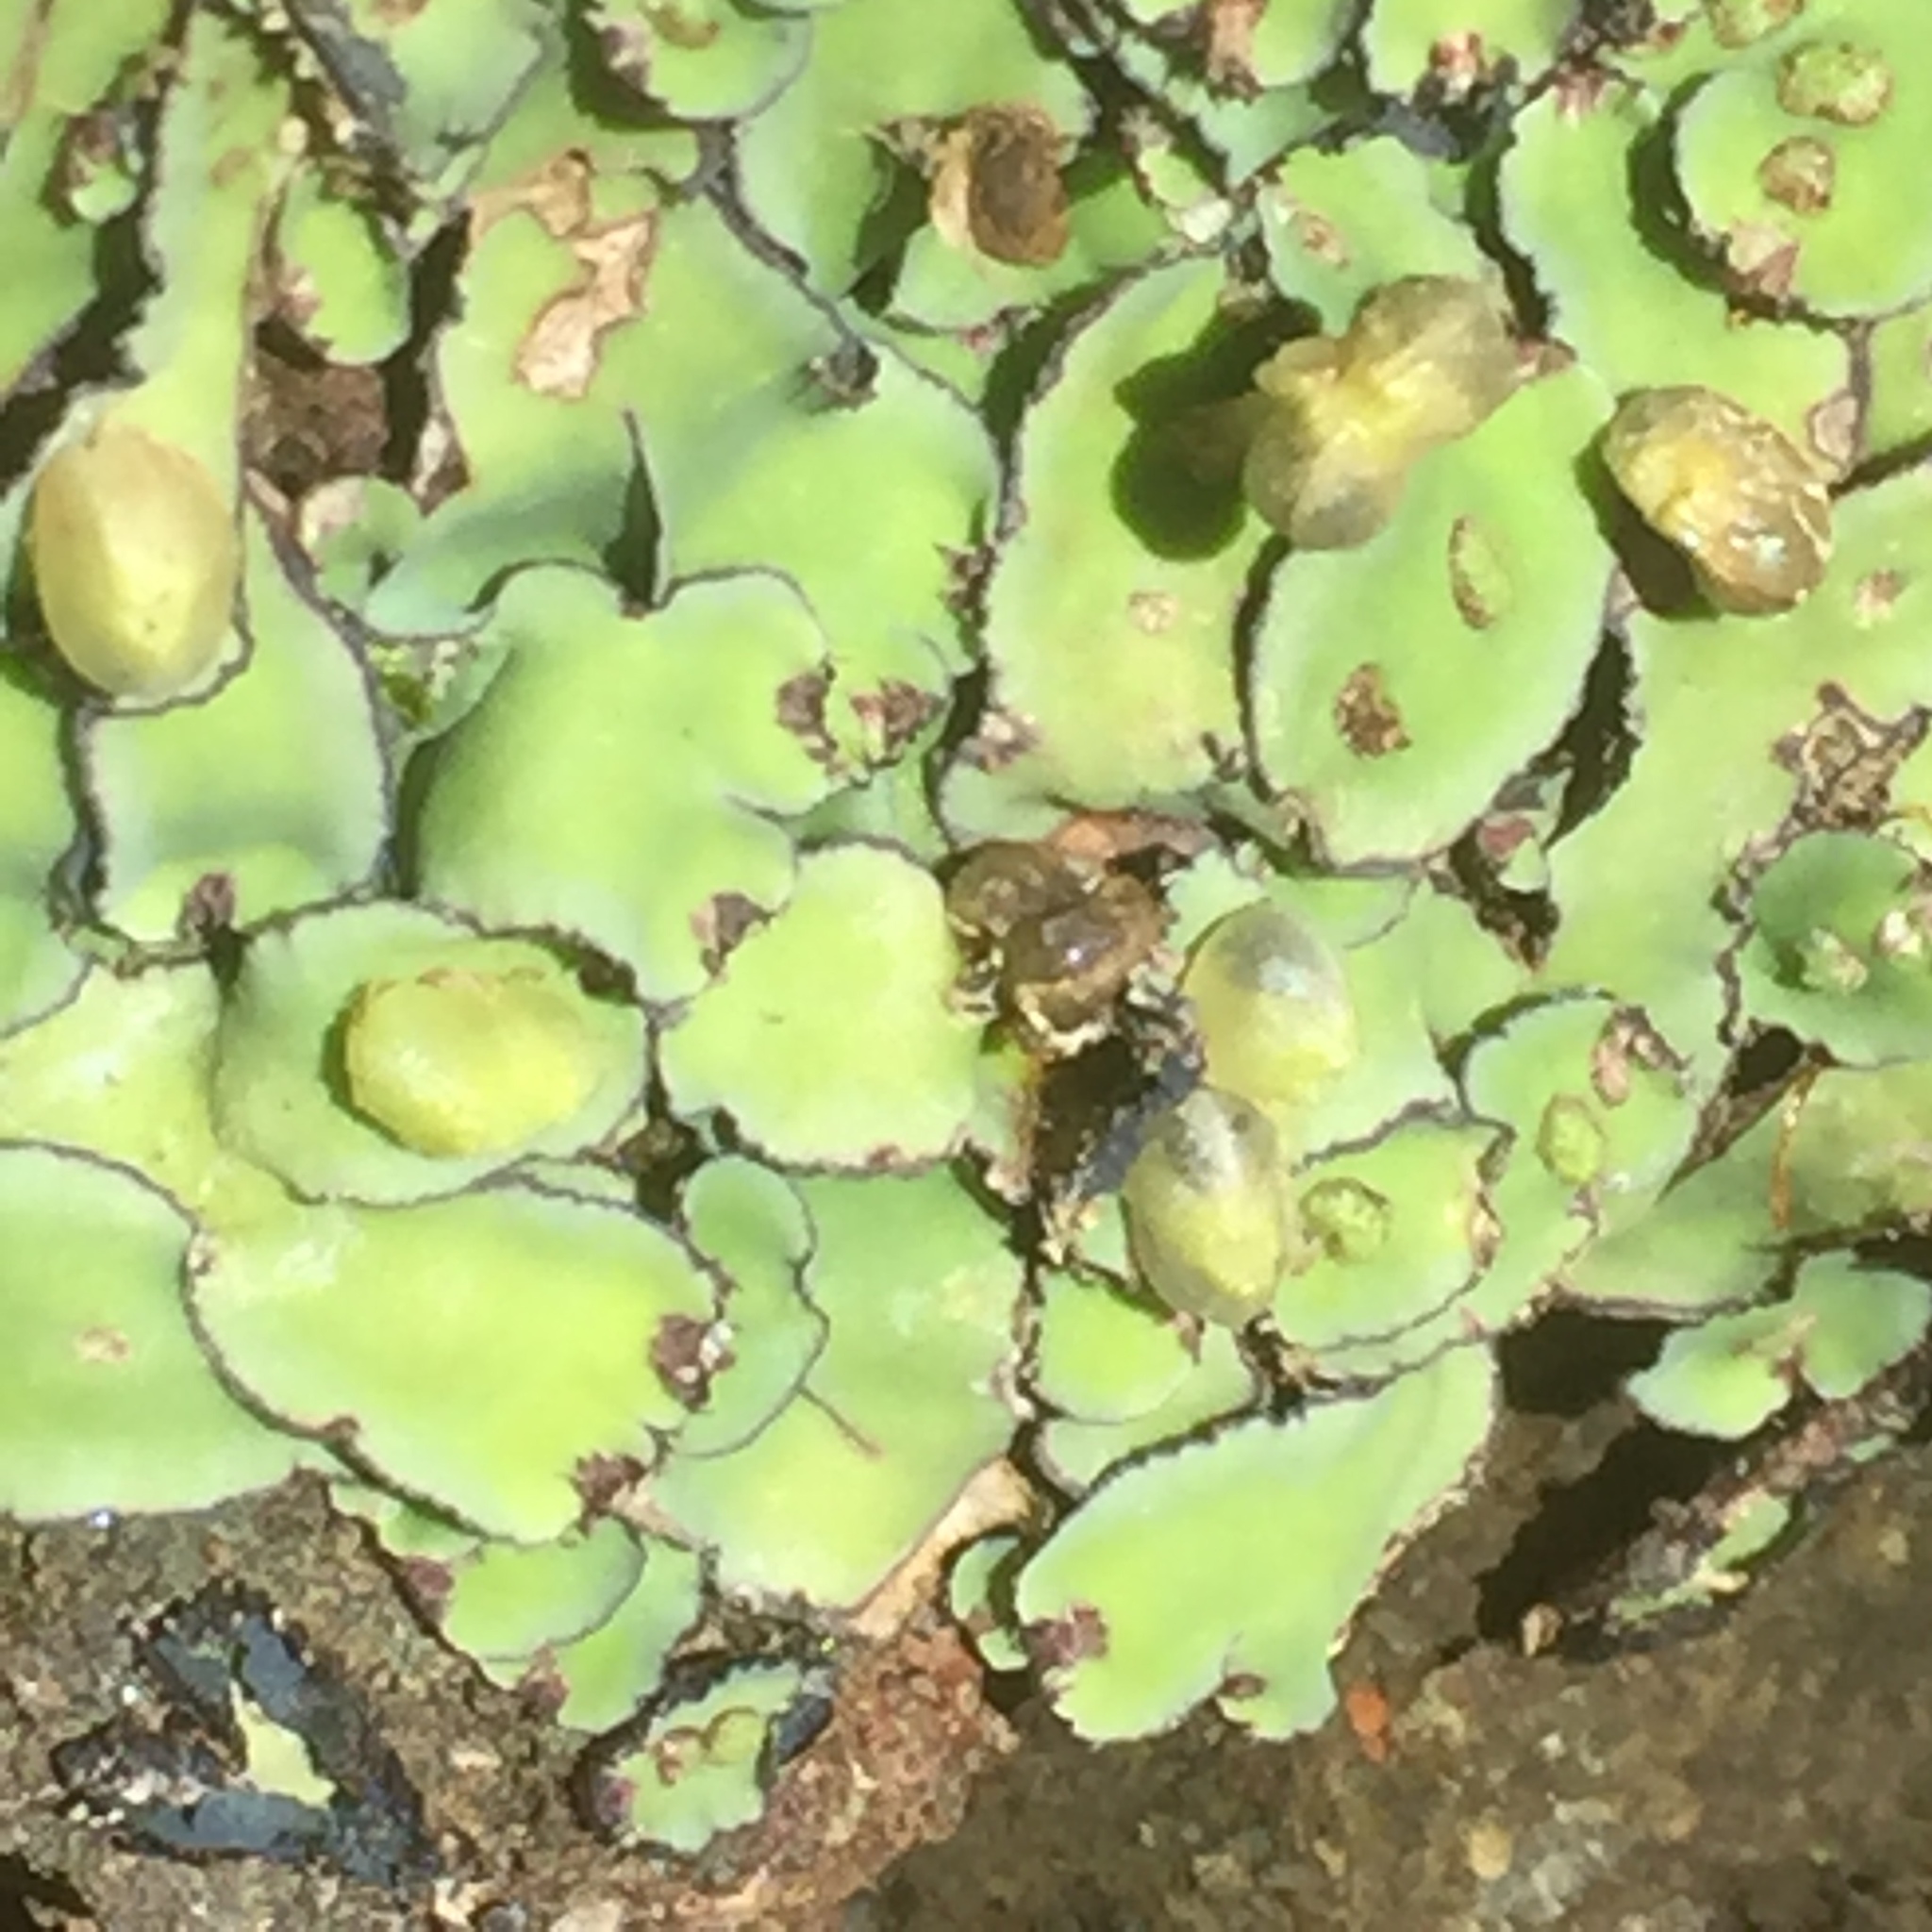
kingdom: Plantae
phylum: Marchantiophyta
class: Marchantiopsida
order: Marchantiales
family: Aytoniaceae
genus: Plagiochasma
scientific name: Plagiochasma rupestre
